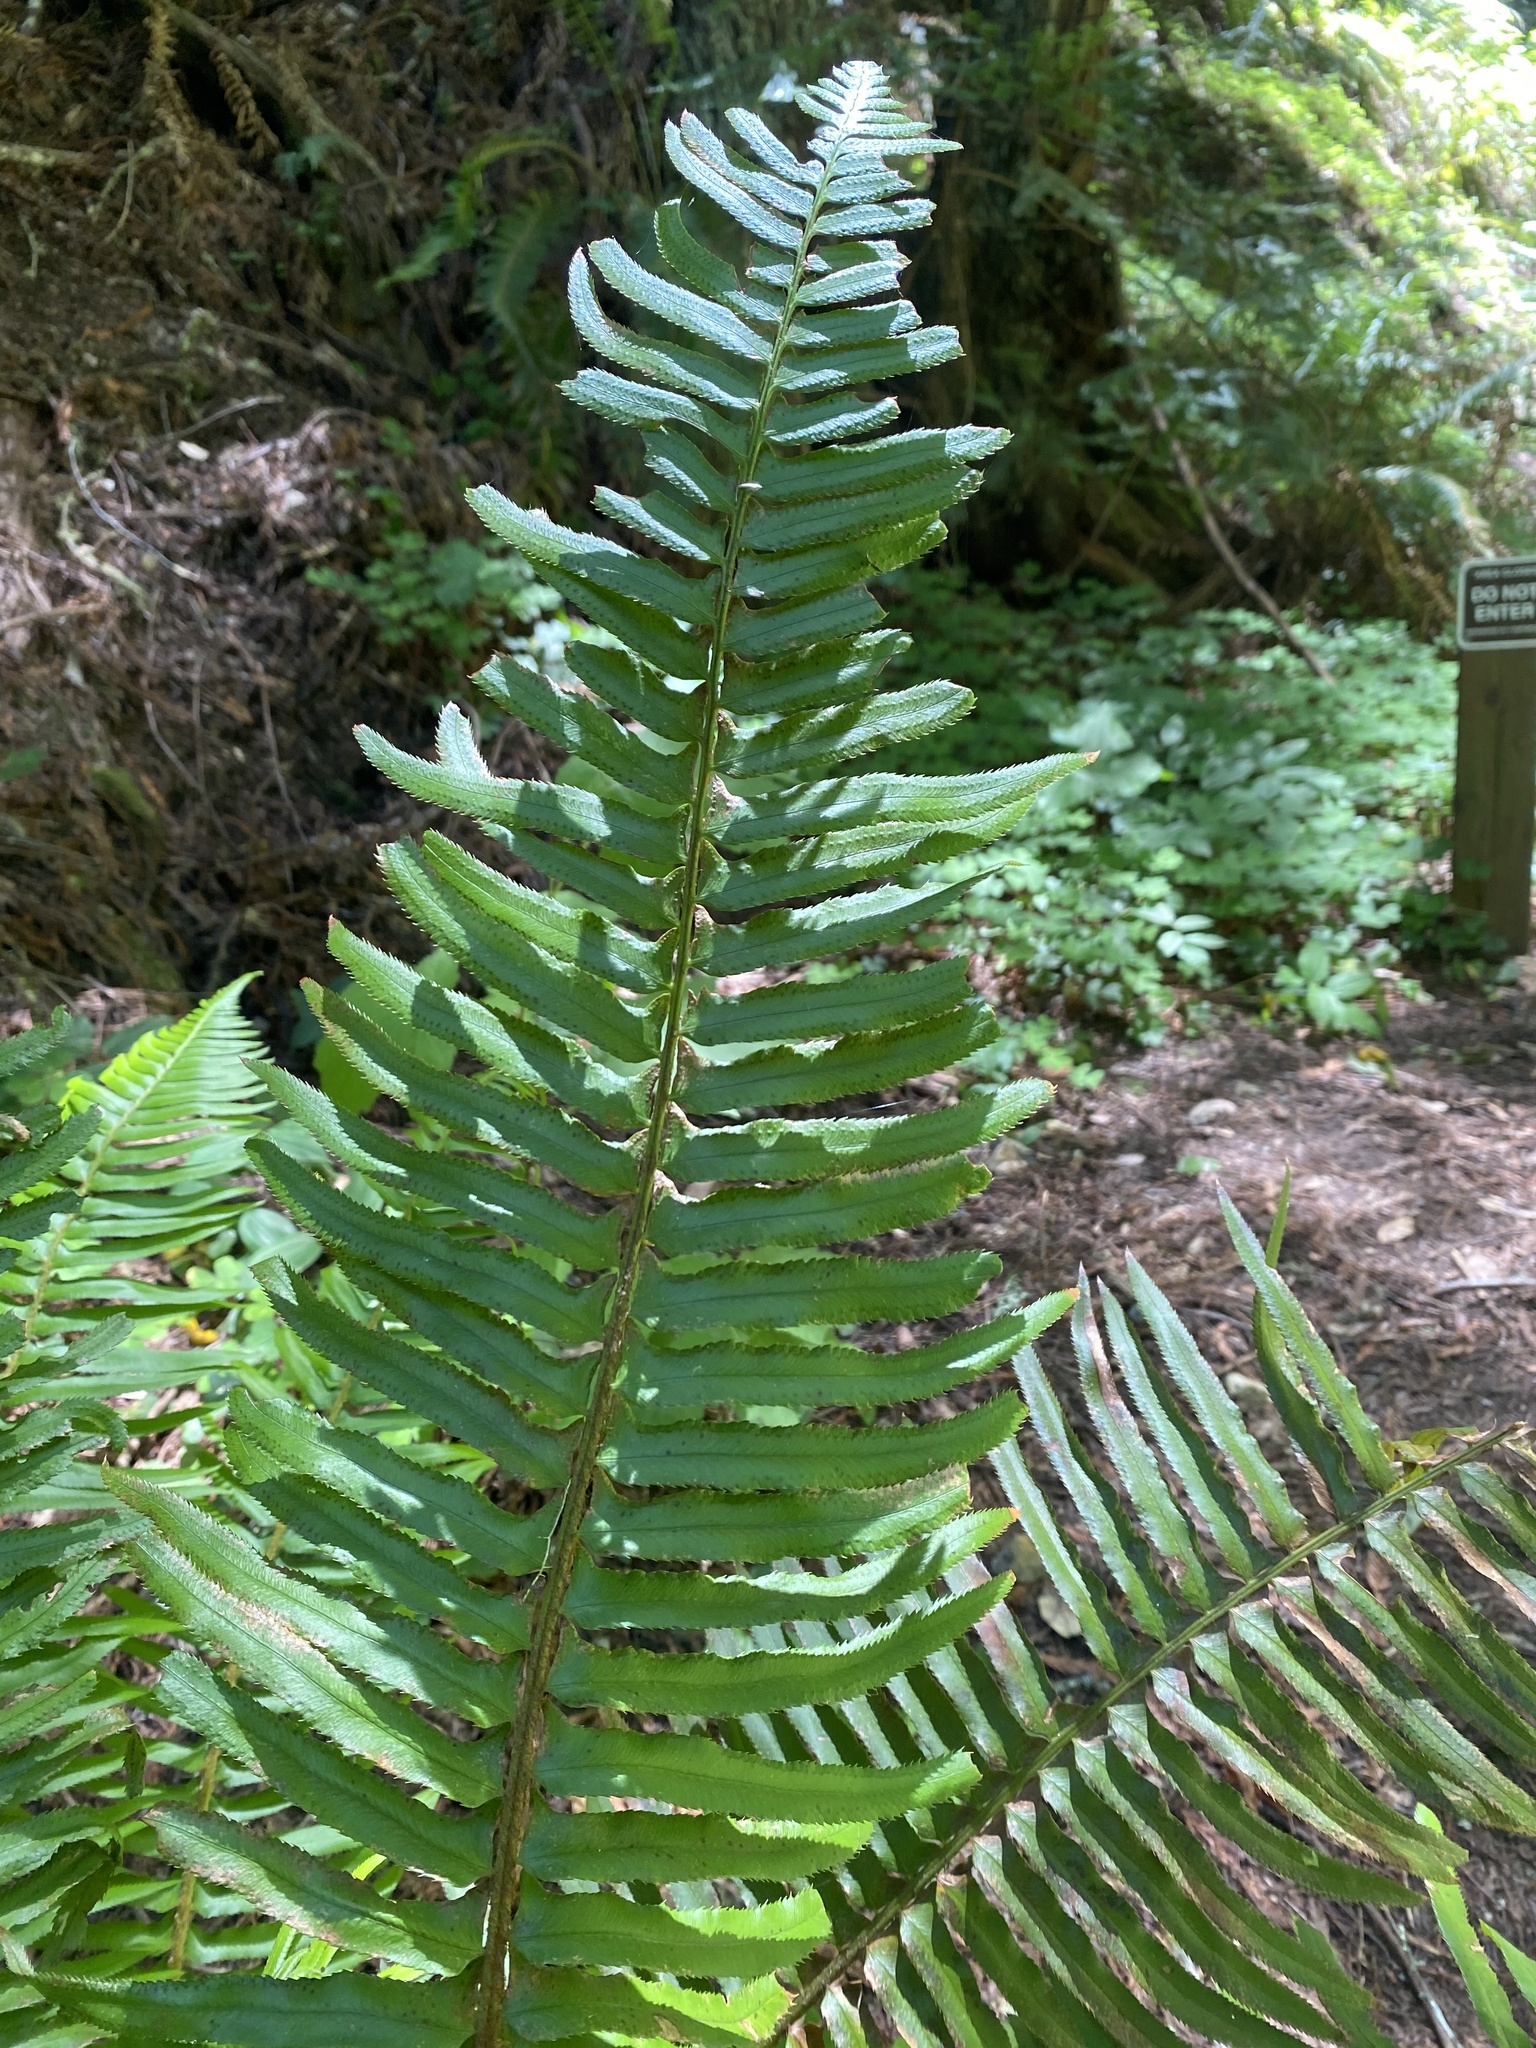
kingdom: Plantae
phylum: Tracheophyta
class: Polypodiopsida
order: Polypodiales
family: Dryopteridaceae
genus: Polystichum
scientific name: Polystichum munitum
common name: Western sword-fern
